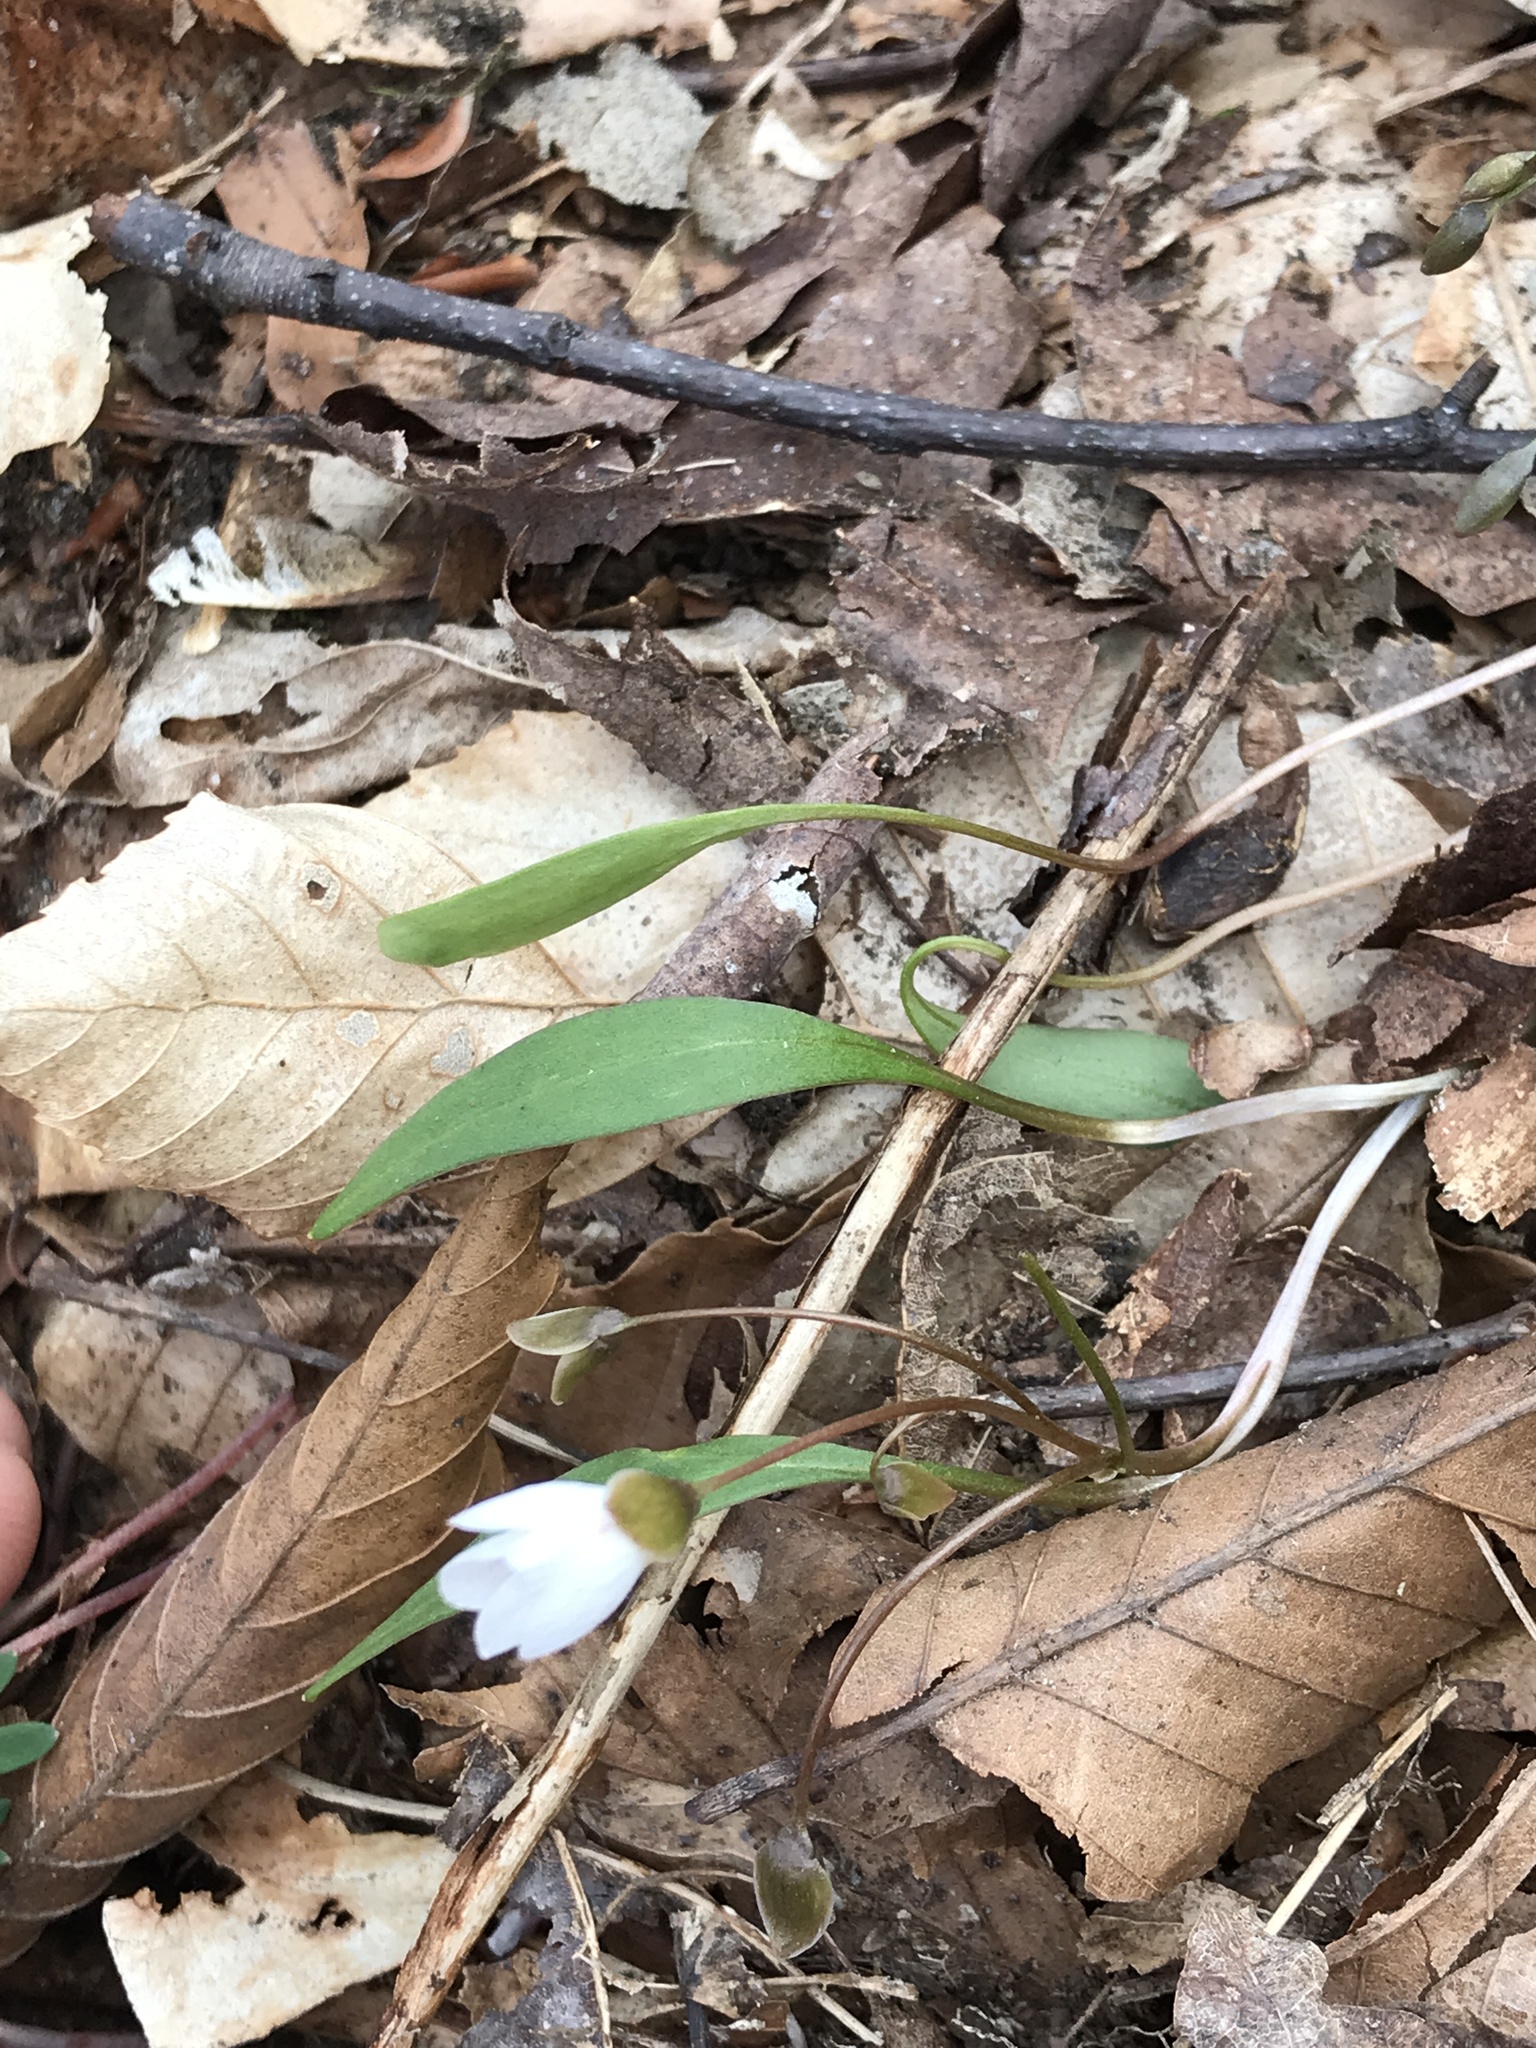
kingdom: Plantae
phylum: Tracheophyta
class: Magnoliopsida
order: Caryophyllales
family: Montiaceae
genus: Claytonia
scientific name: Claytonia caroliniana
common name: Carolina spring beauty
